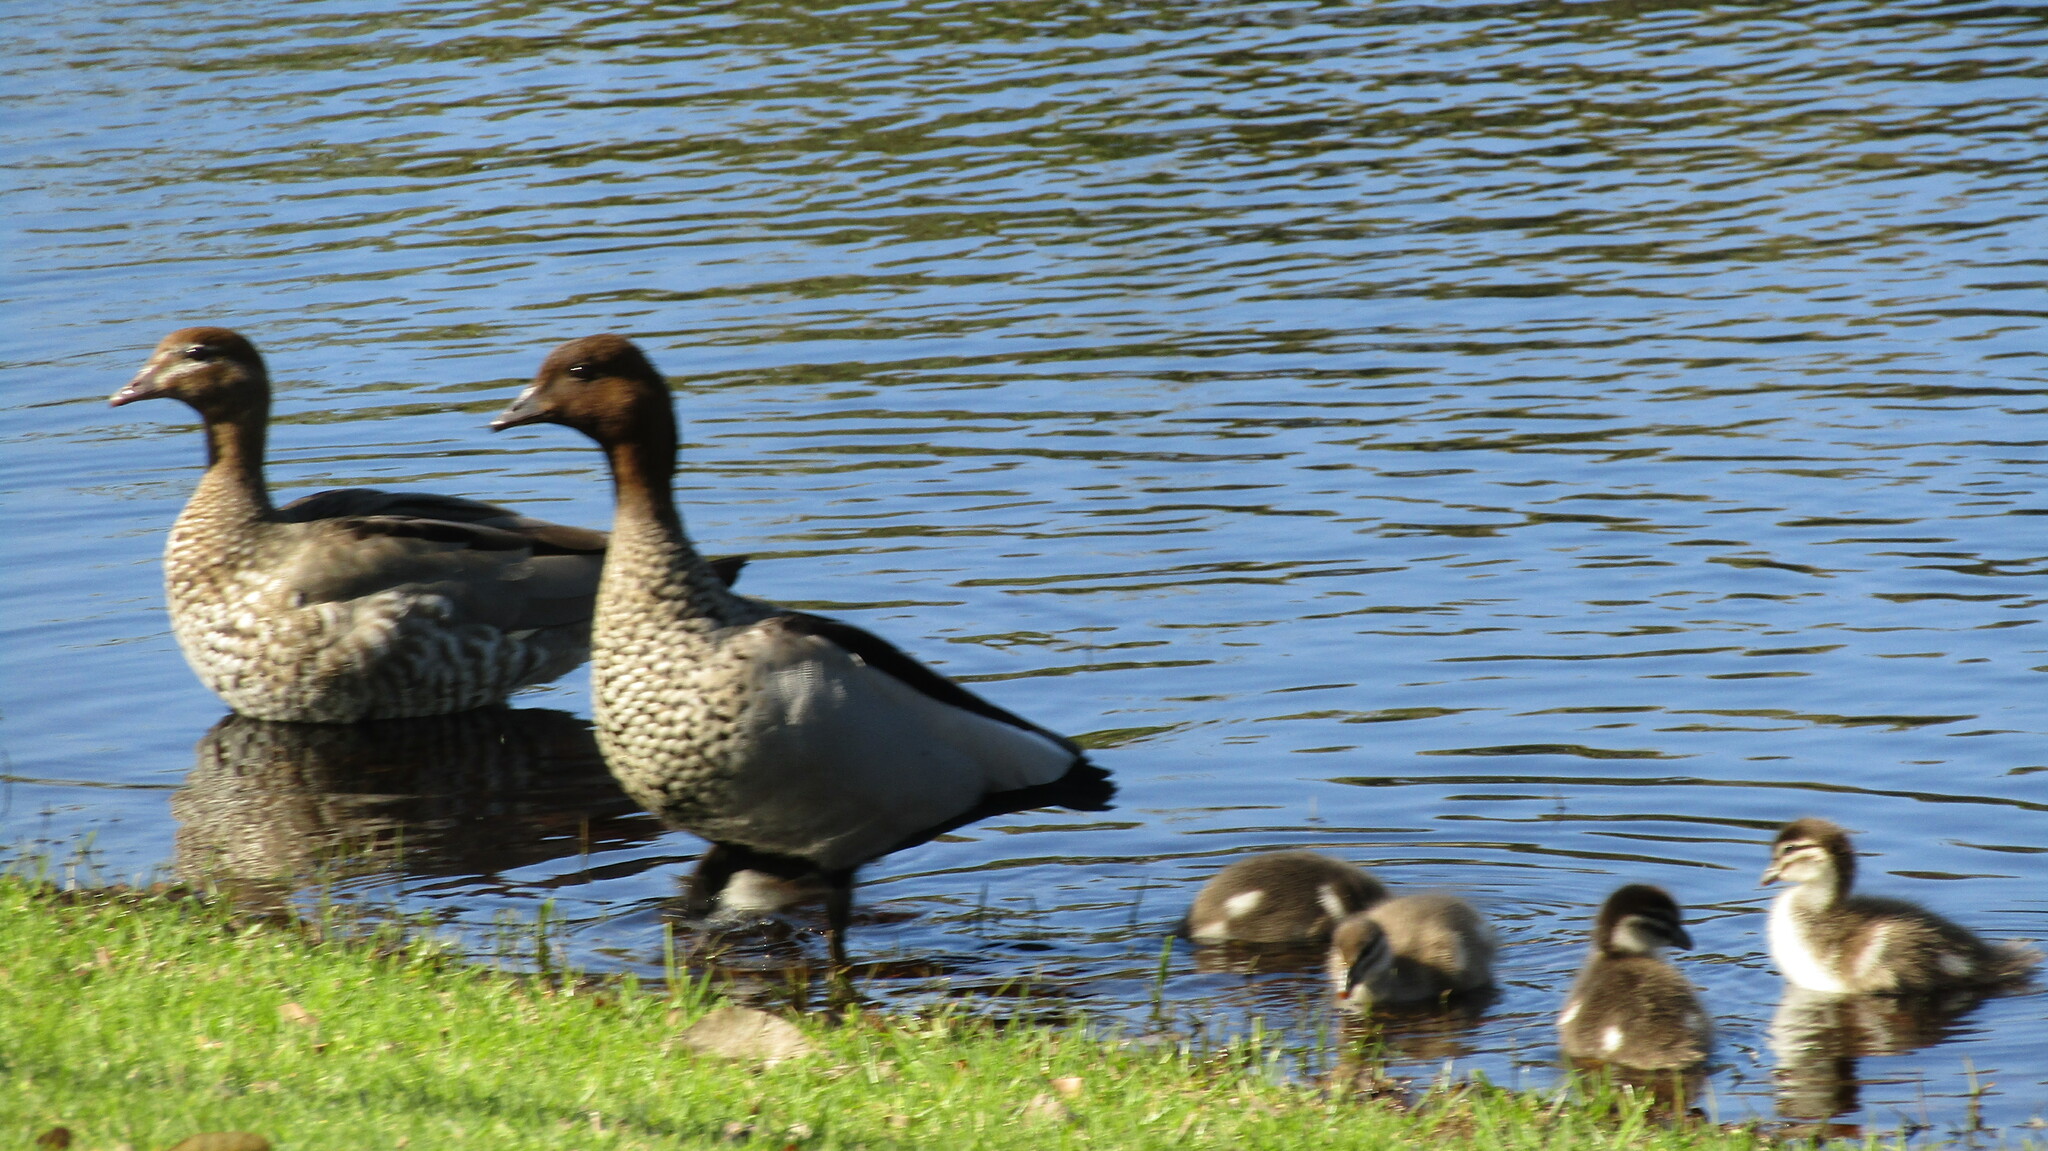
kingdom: Animalia
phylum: Chordata
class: Aves
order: Anseriformes
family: Anatidae
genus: Chenonetta
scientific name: Chenonetta jubata
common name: Maned duck
